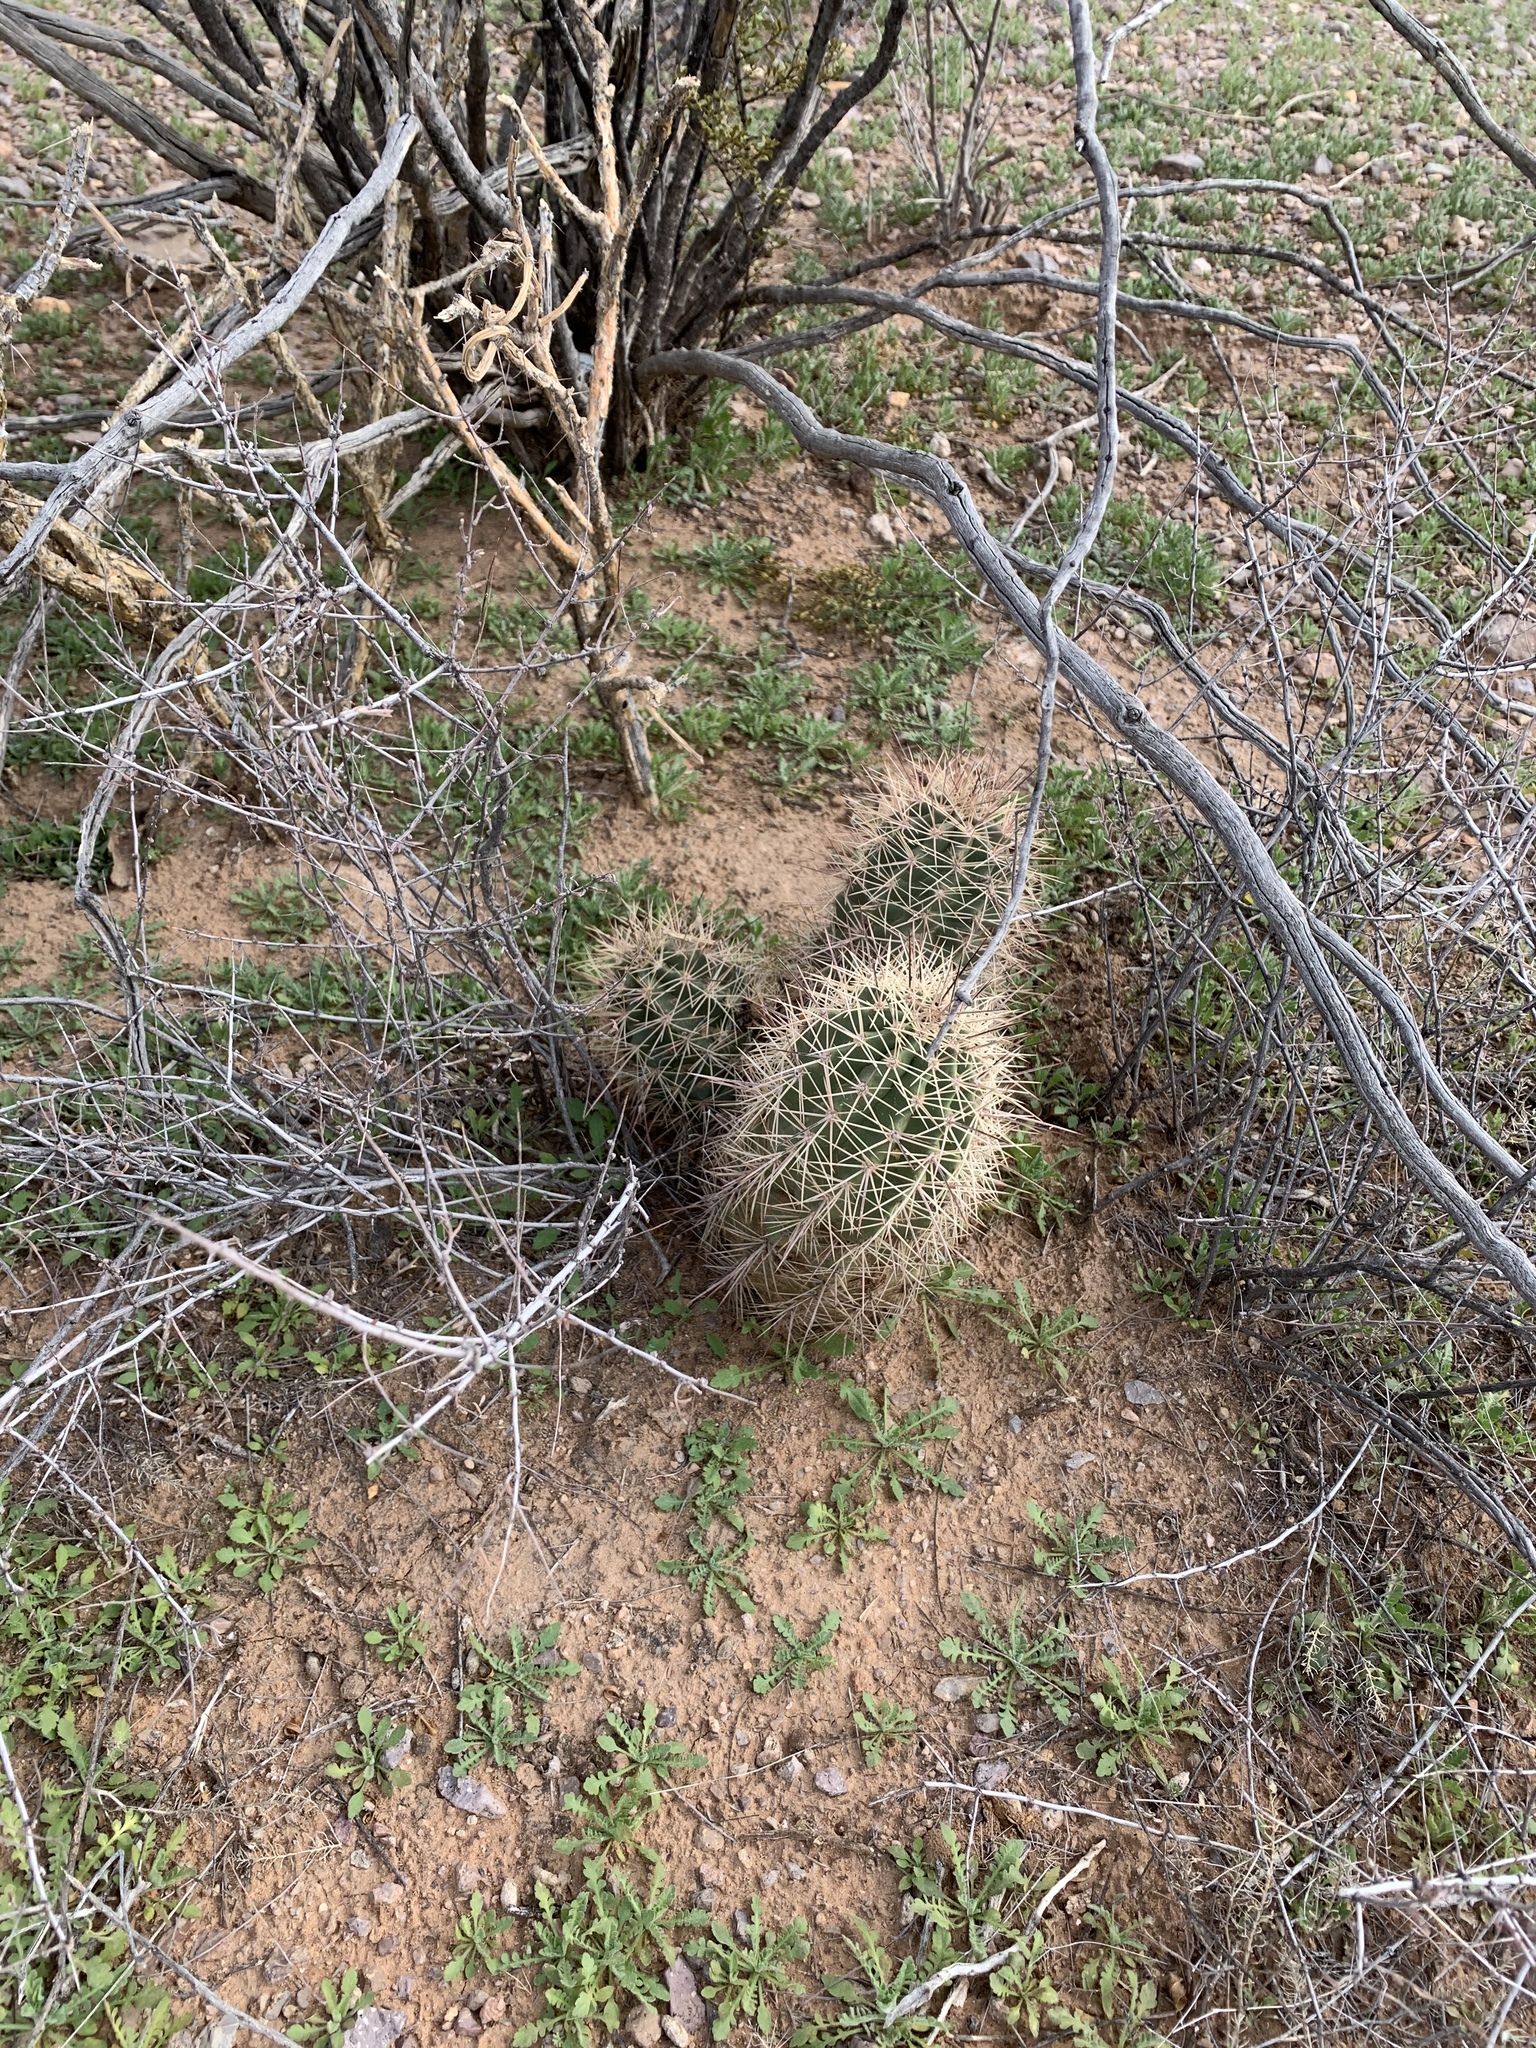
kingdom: Plantae
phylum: Tracheophyta
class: Magnoliopsida
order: Caryophyllales
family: Cactaceae
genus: Echinocereus
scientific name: Echinocereus coccineus
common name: Scarlet hedgehog cactus
